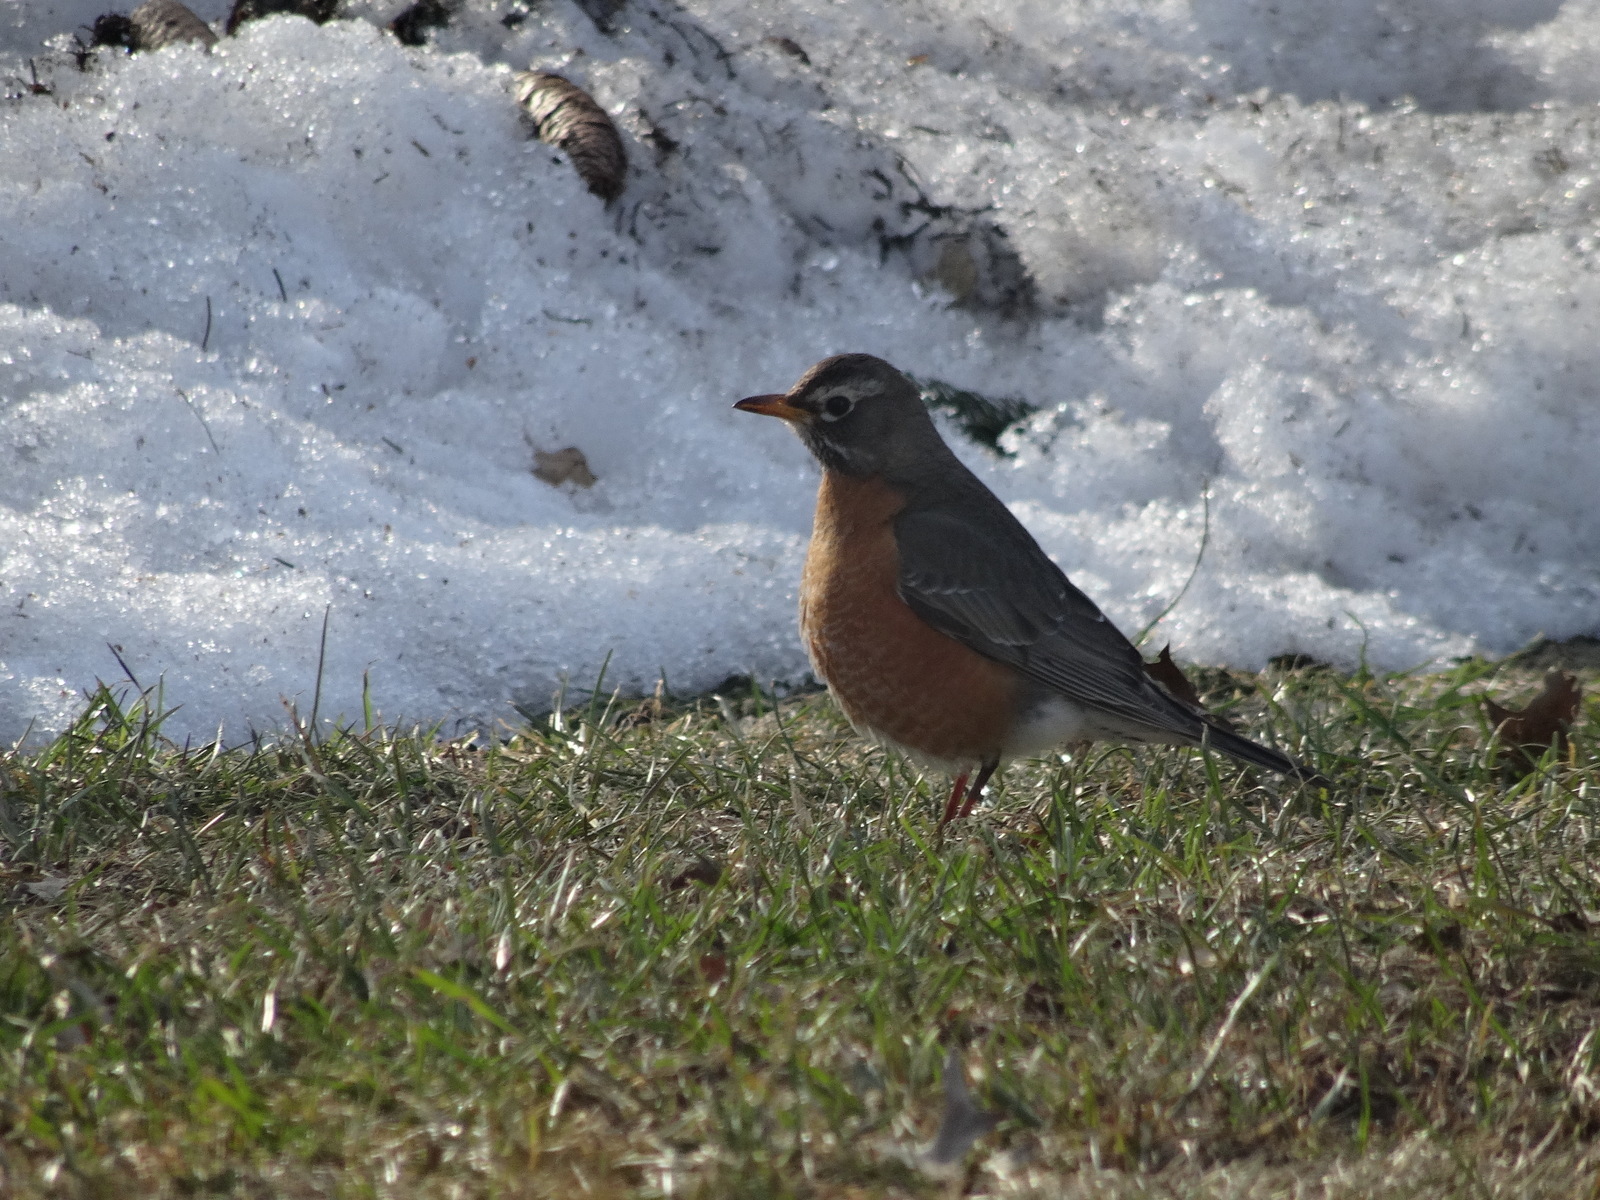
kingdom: Animalia
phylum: Chordata
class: Aves
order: Passeriformes
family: Turdidae
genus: Turdus
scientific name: Turdus migratorius
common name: American robin
